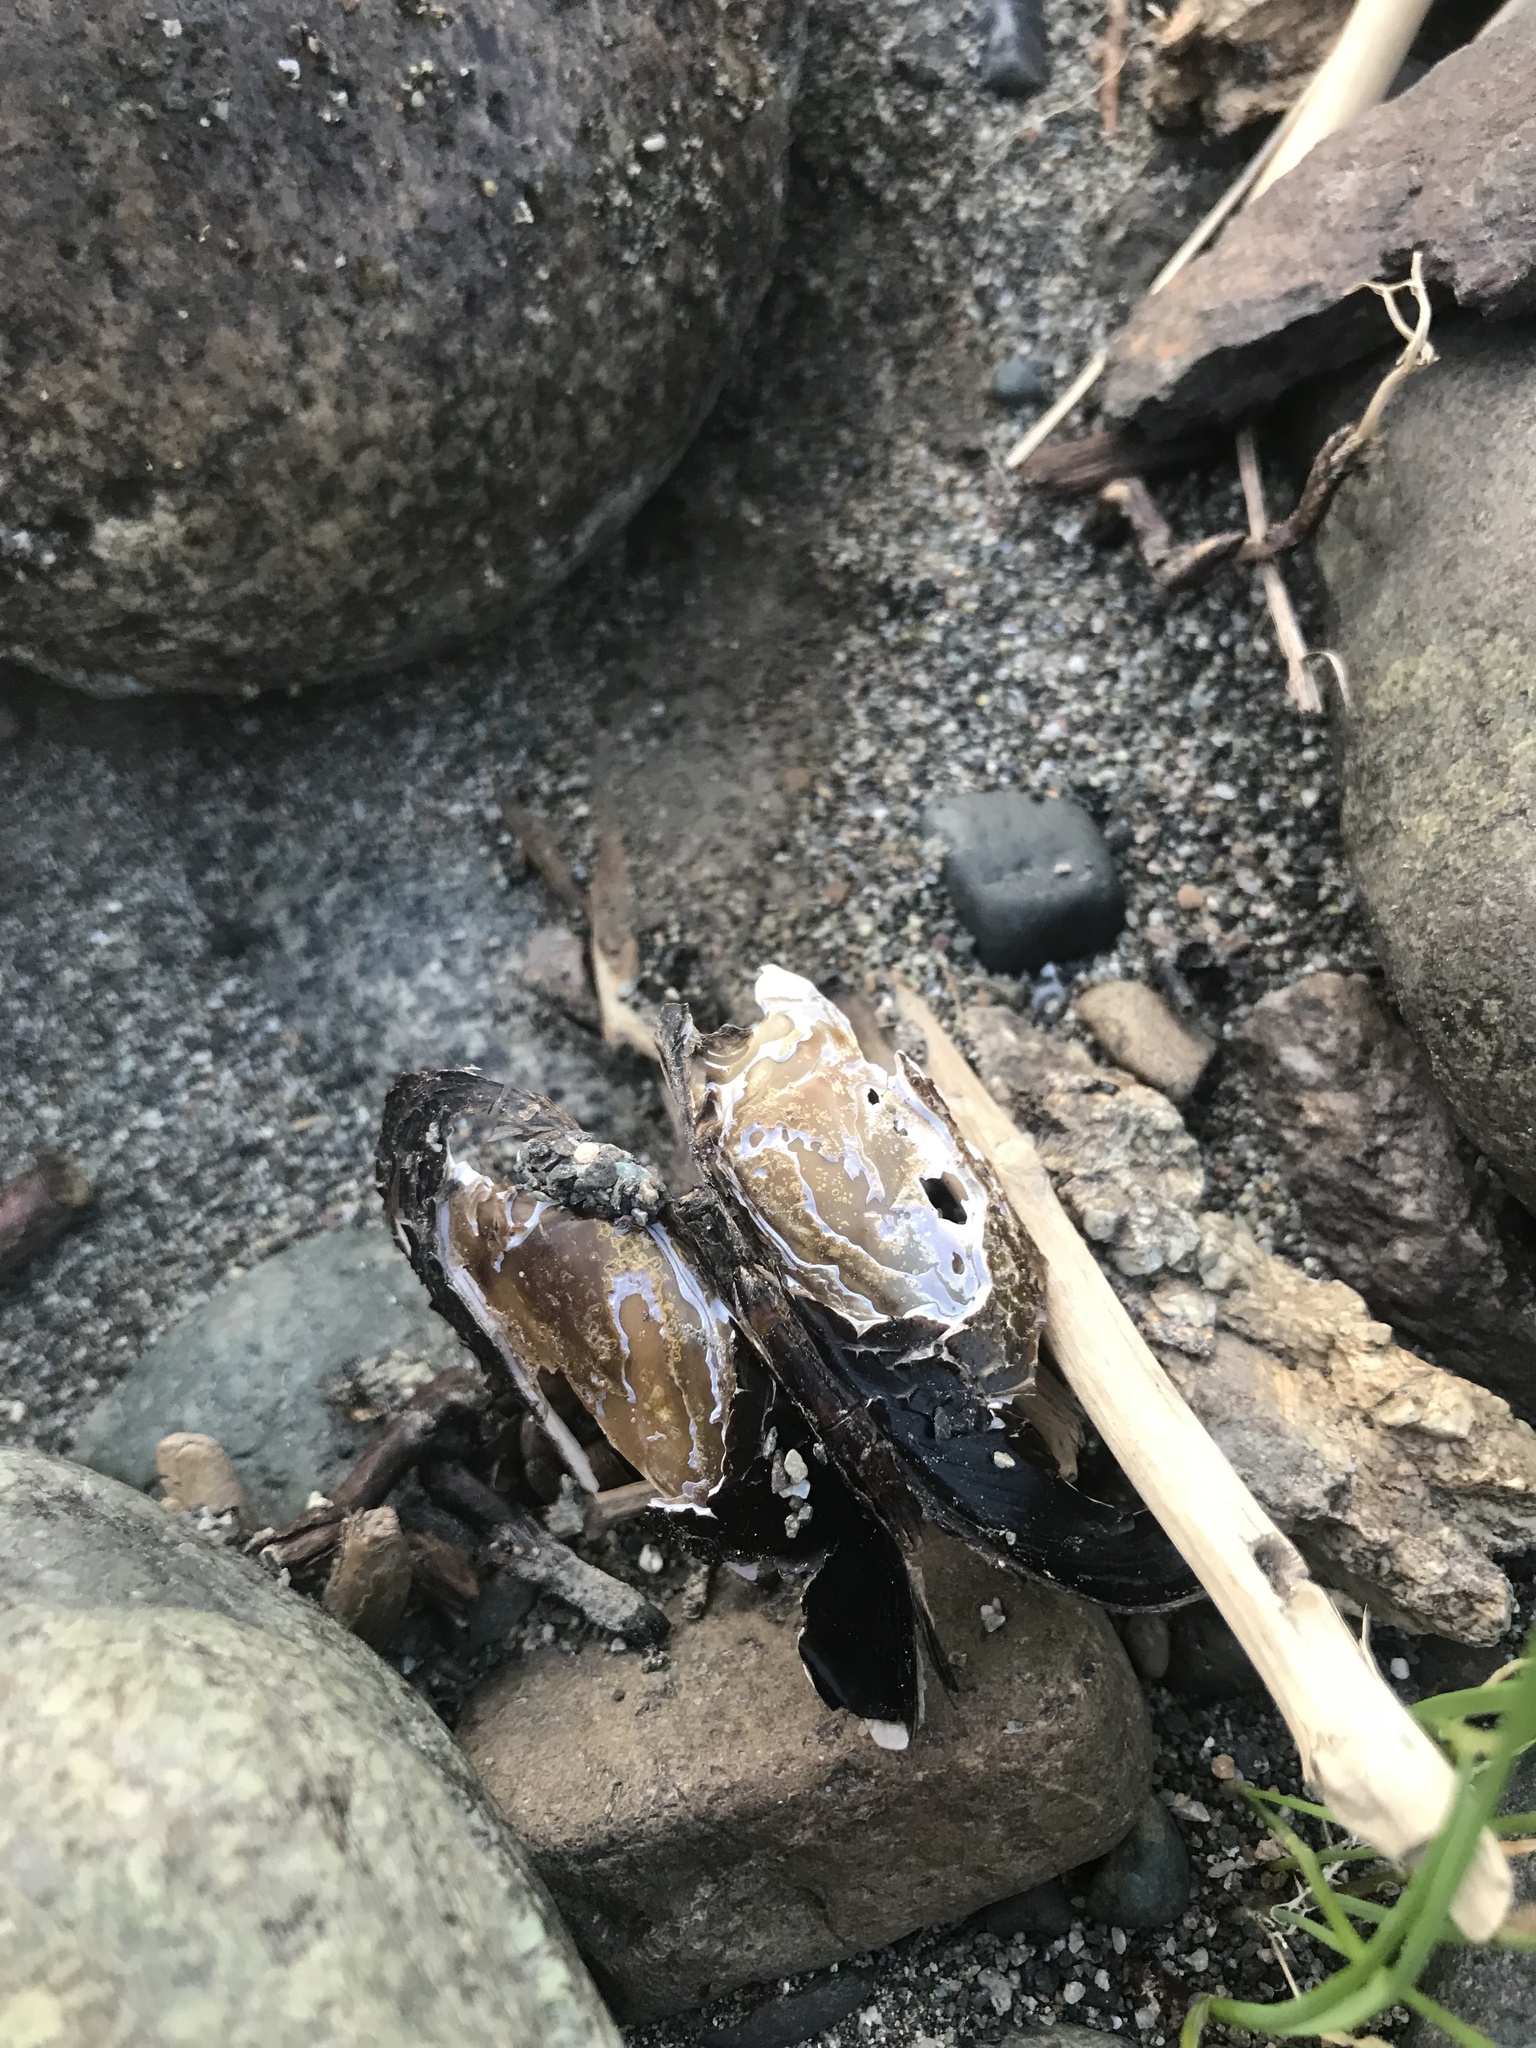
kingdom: Animalia
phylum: Mollusca
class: Bivalvia
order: Unionida
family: Margaritiferidae
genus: Margaritifera
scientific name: Margaritifera falcata
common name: Western pearlshell
